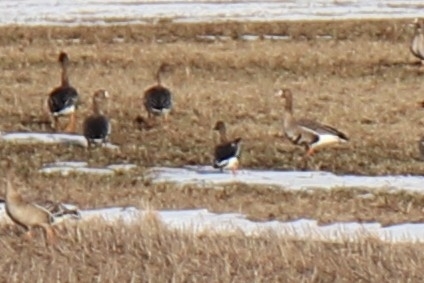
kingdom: Animalia
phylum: Chordata
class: Aves
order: Anseriformes
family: Anatidae
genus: Anser
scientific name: Anser albifrons
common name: Greater white-fronted goose
